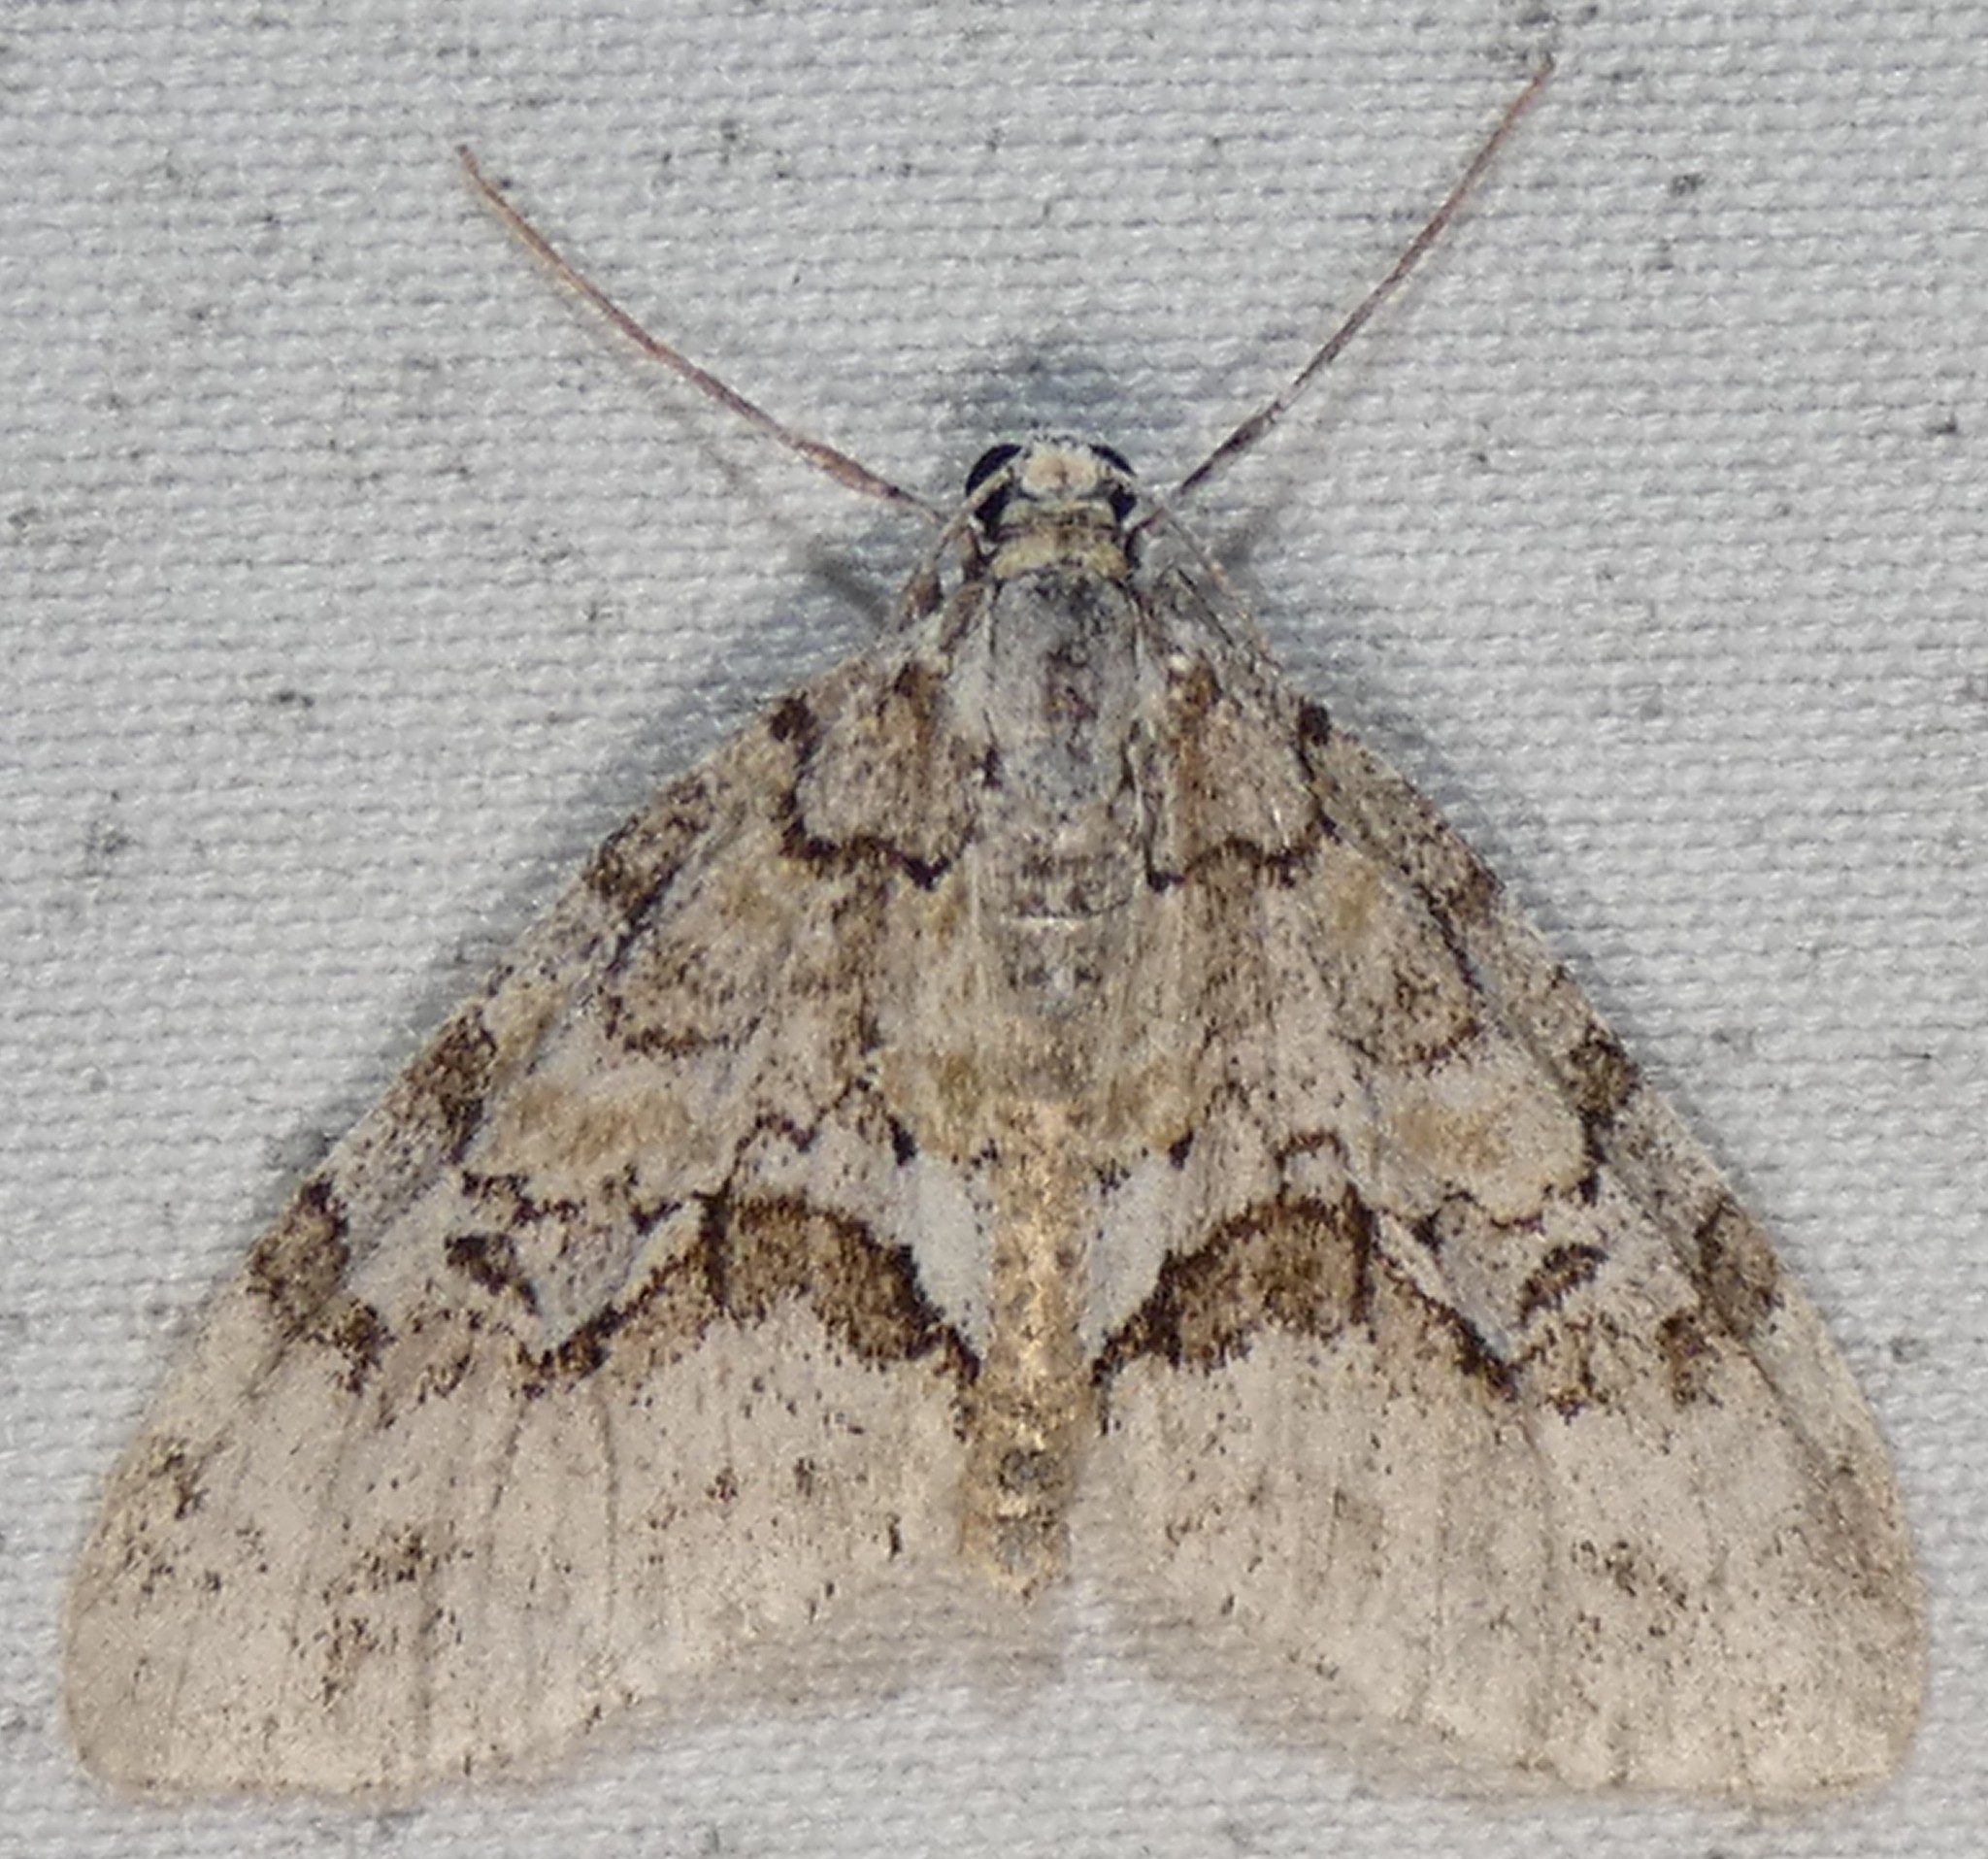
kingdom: Animalia
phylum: Arthropoda
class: Insecta
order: Lepidoptera
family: Geometridae
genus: Cladara
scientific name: Cladara limitaria
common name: Mottled gray carpet
